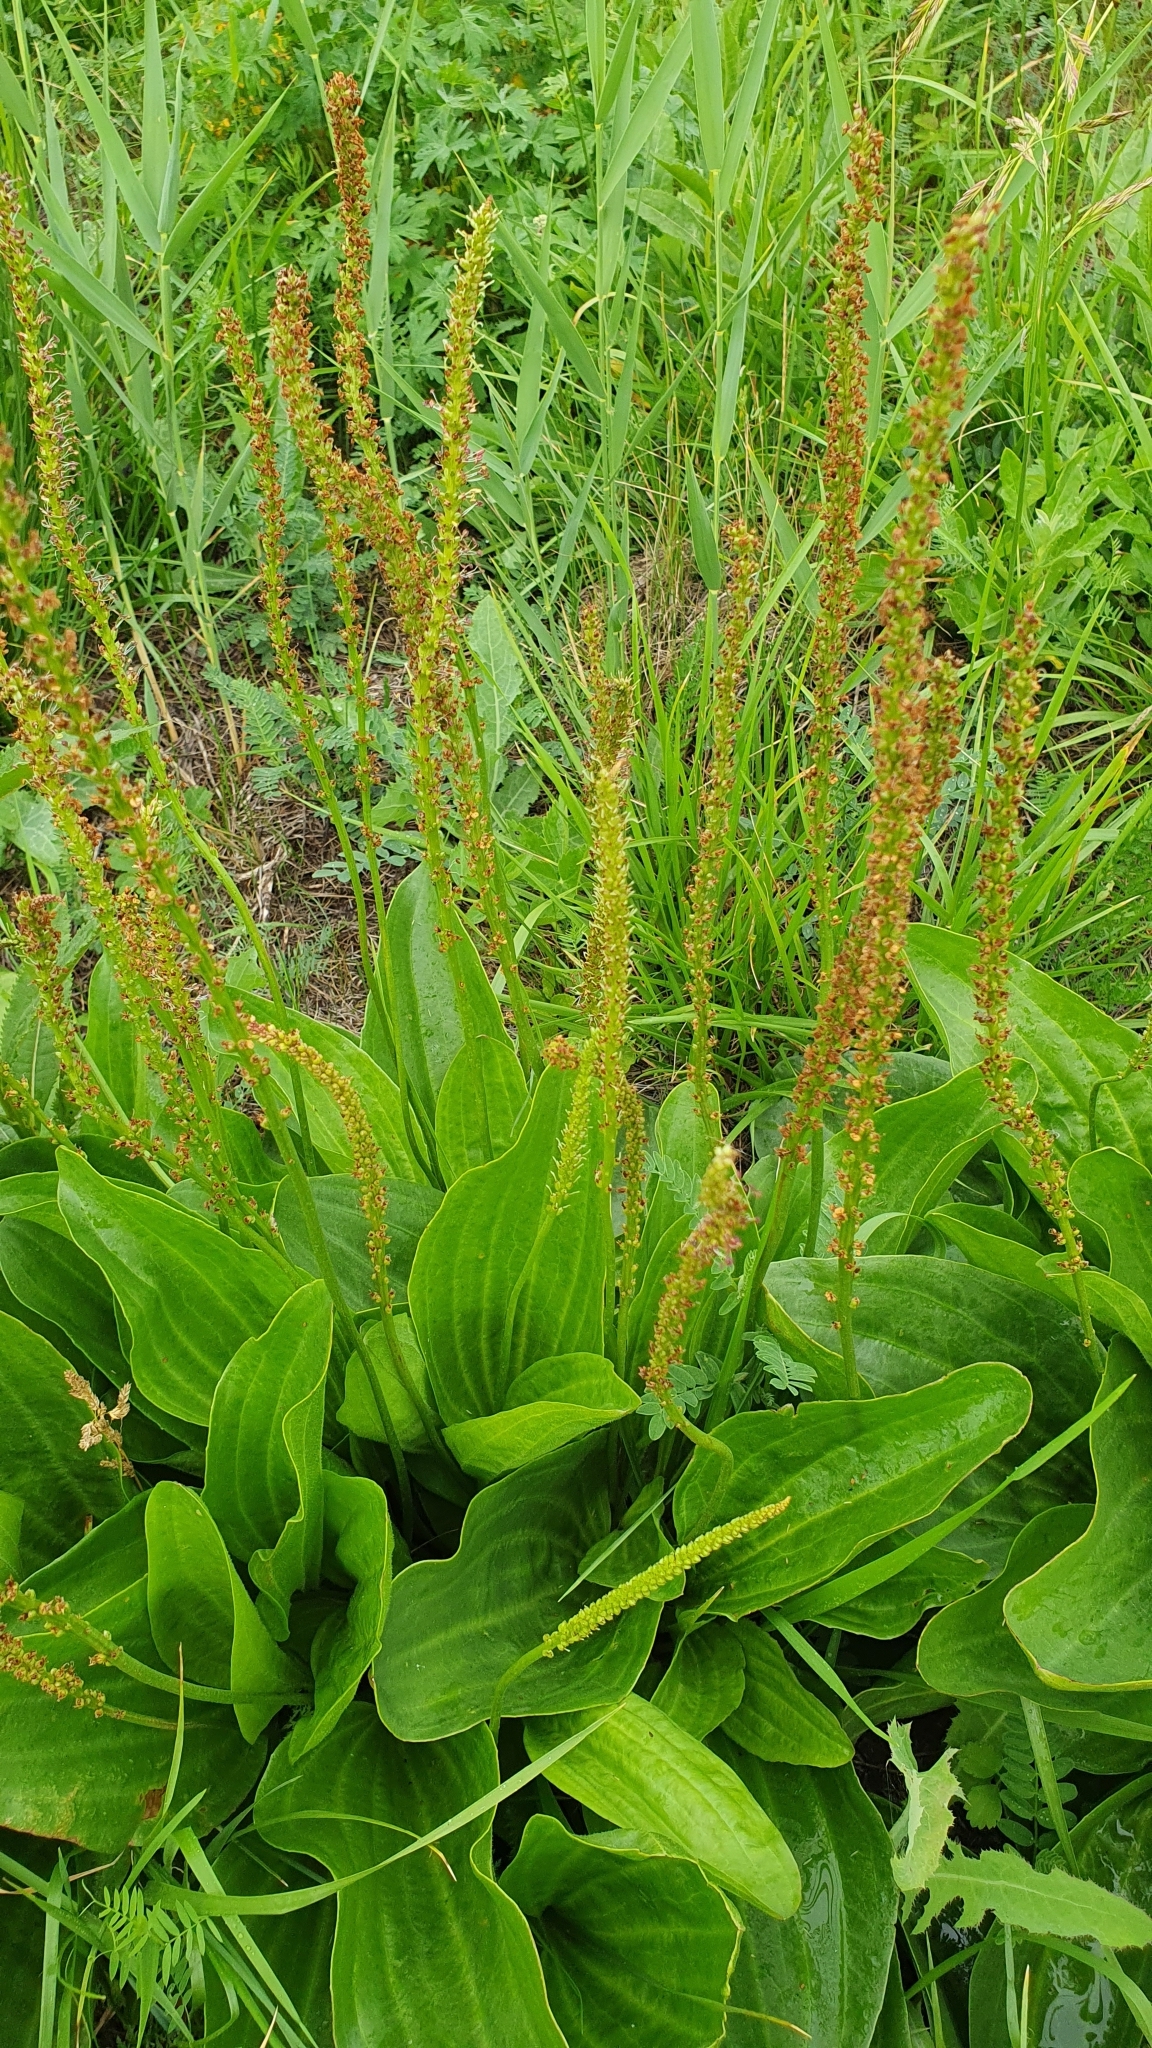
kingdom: Plantae
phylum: Tracheophyta
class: Magnoliopsida
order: Lamiales
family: Plantaginaceae
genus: Plantago
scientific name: Plantago cornuti
